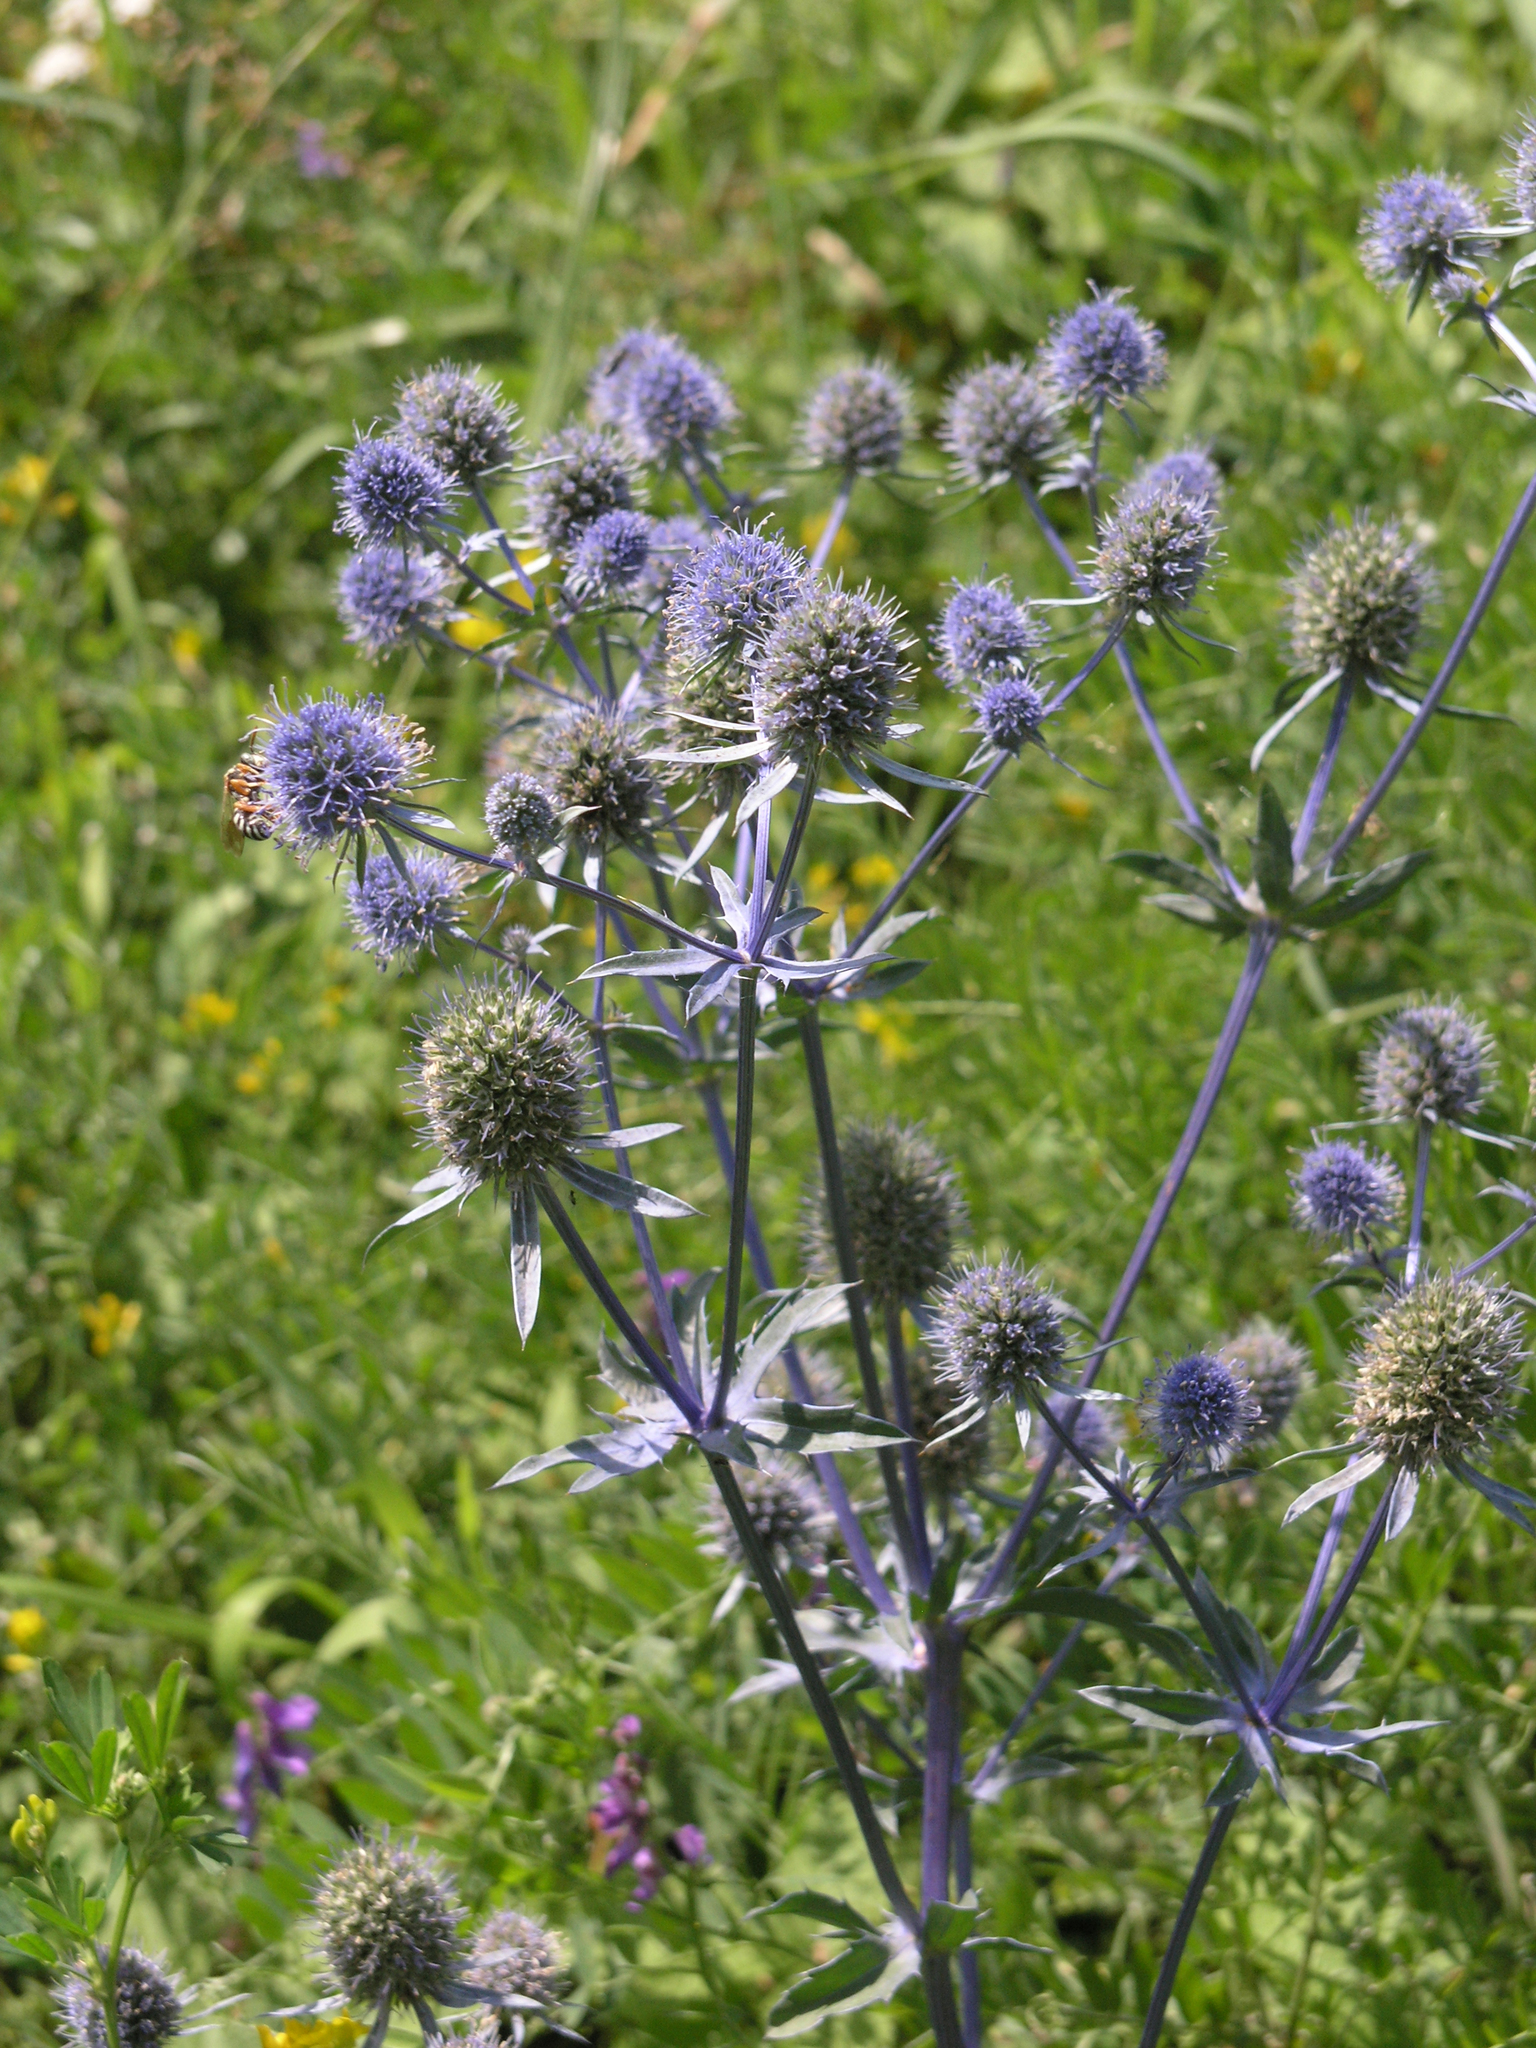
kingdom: Plantae
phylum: Tracheophyta
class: Magnoliopsida
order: Apiales
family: Apiaceae
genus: Eryngium
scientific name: Eryngium planum
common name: Blue eryngo
